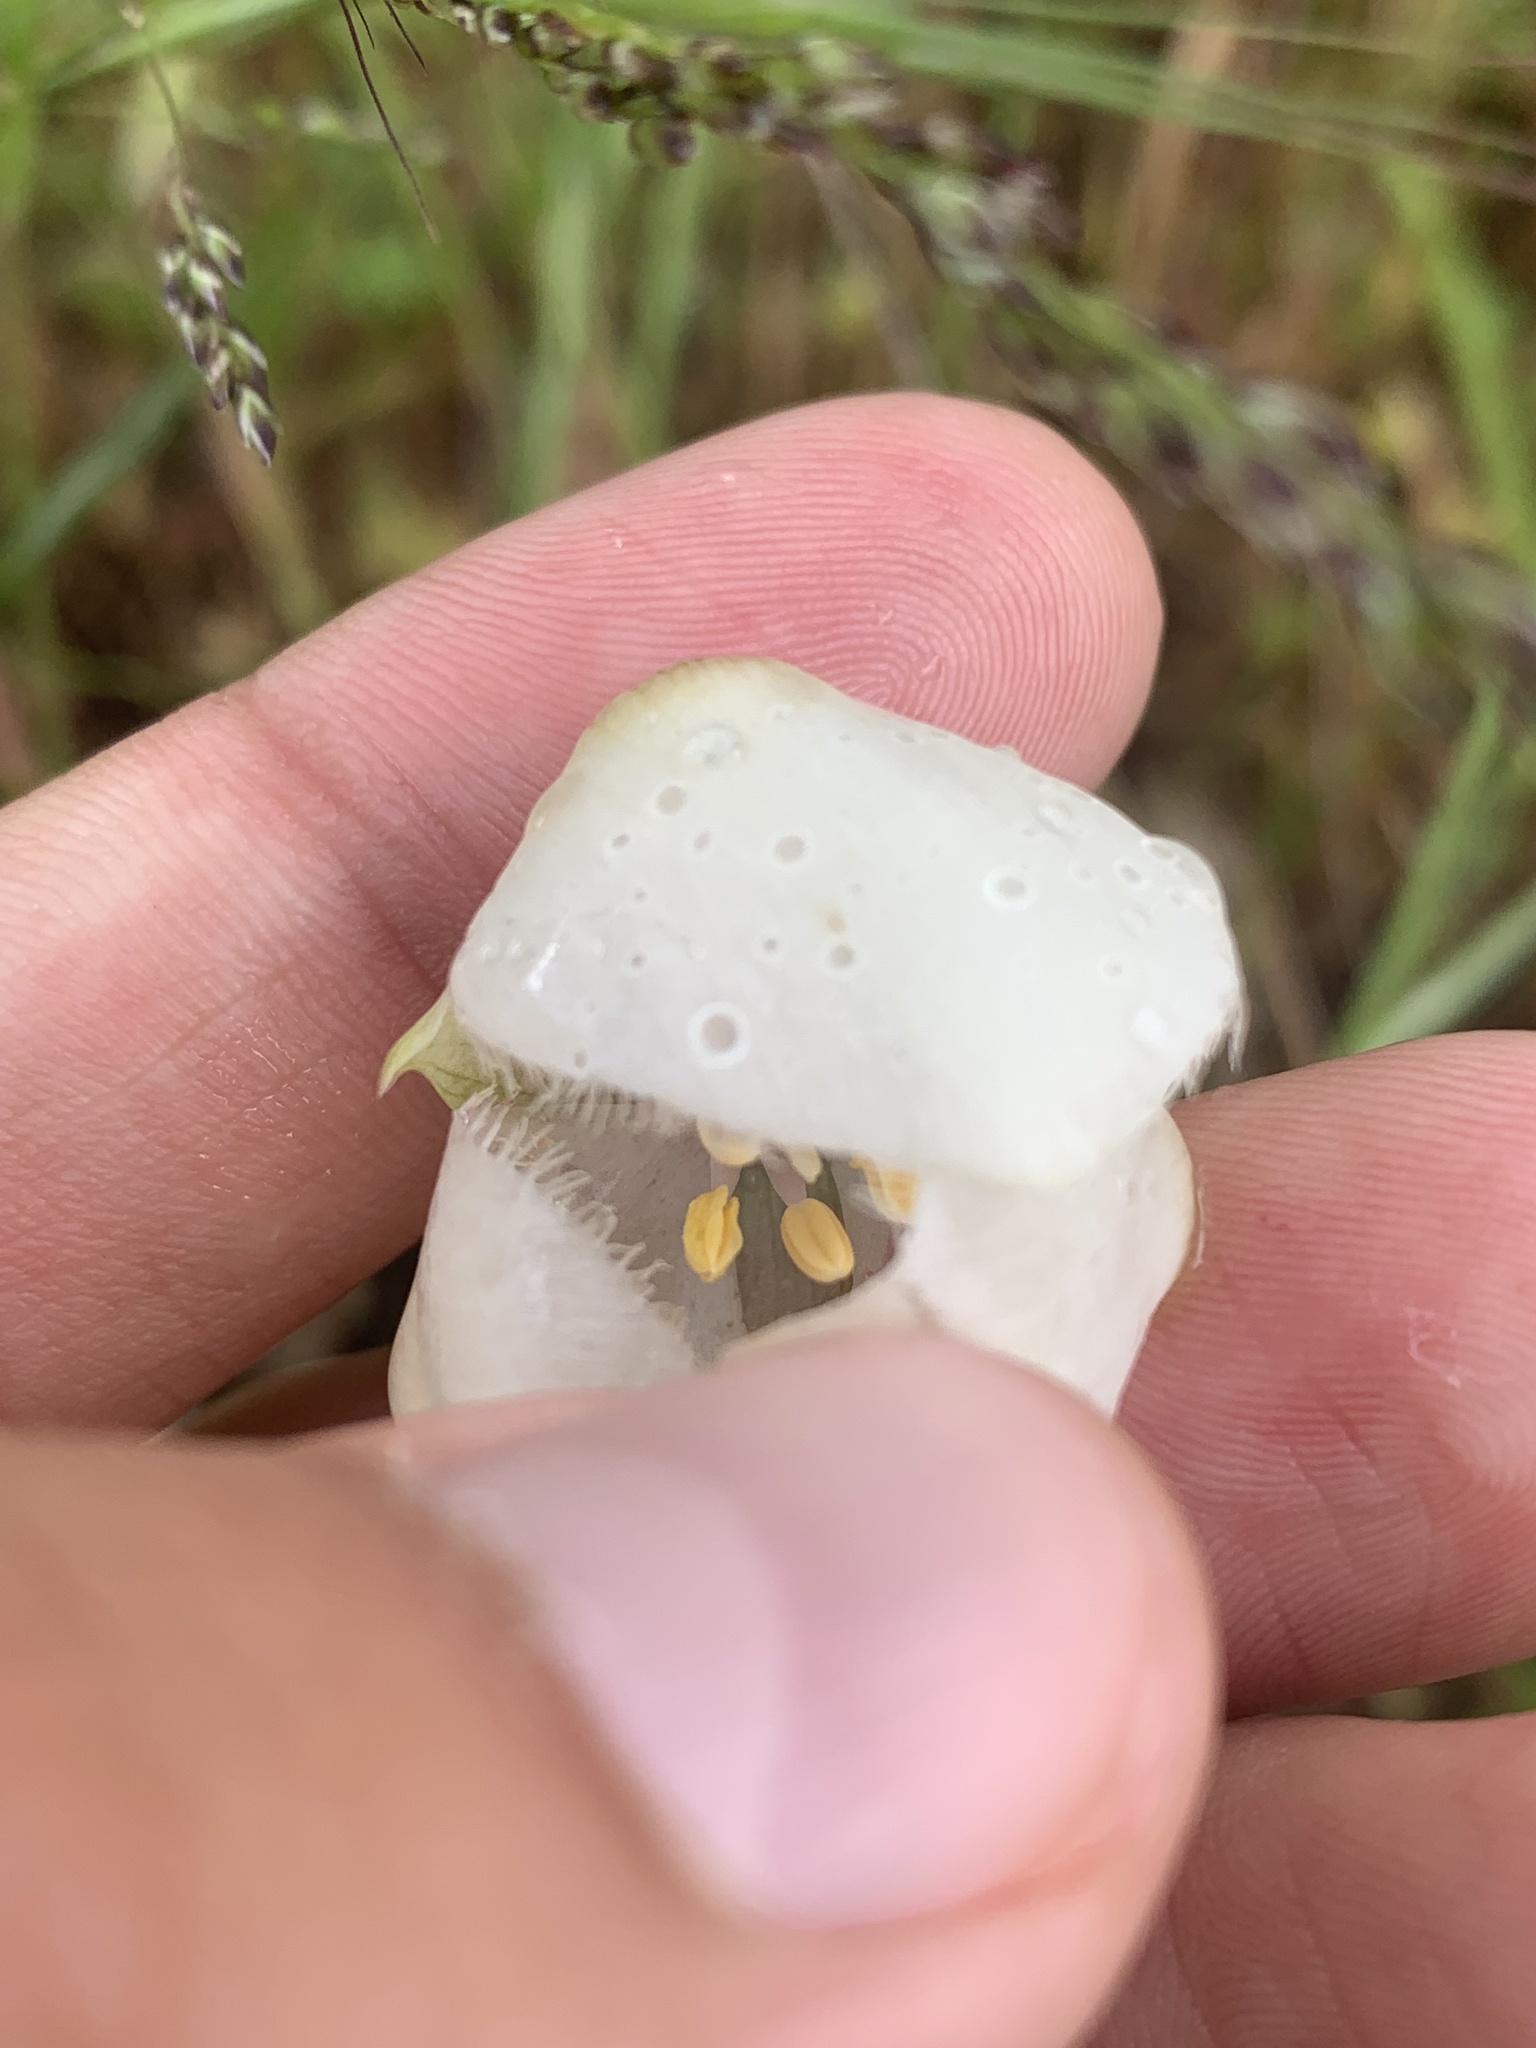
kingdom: Plantae
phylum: Tracheophyta
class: Liliopsida
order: Liliales
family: Liliaceae
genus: Calochortus
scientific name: Calochortus albus
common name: Fairy-lantern
